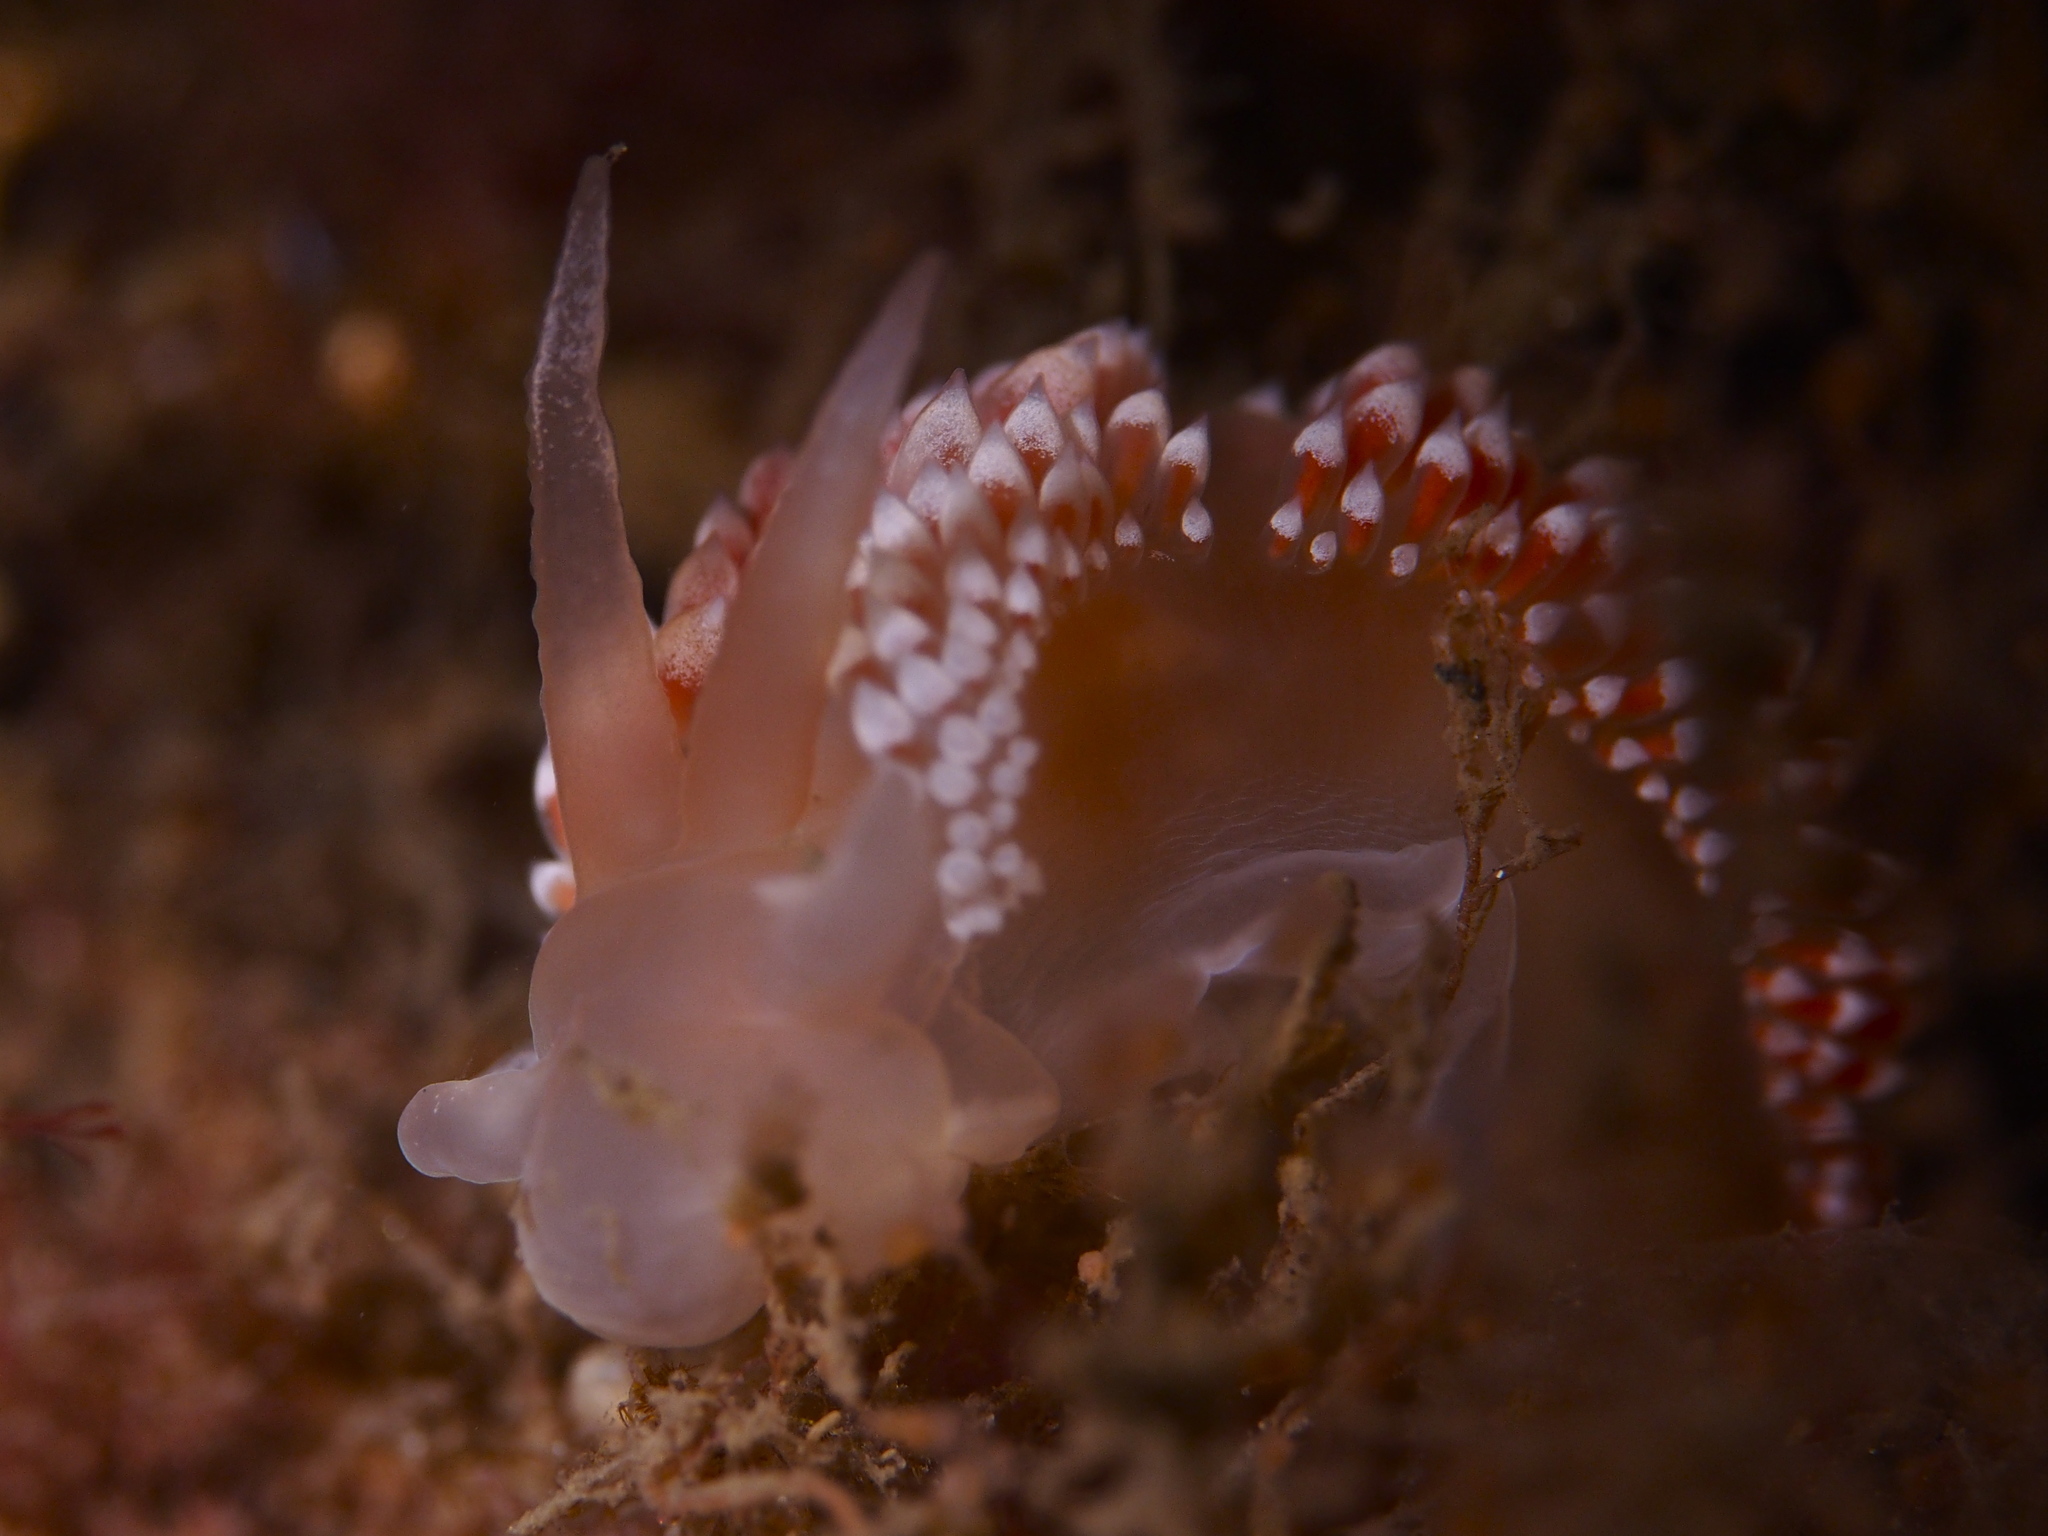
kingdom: Animalia
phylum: Mollusca
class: Gastropoda
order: Nudibranchia
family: Coryphellidae
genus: Coryphella
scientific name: Coryphella verrucosa
